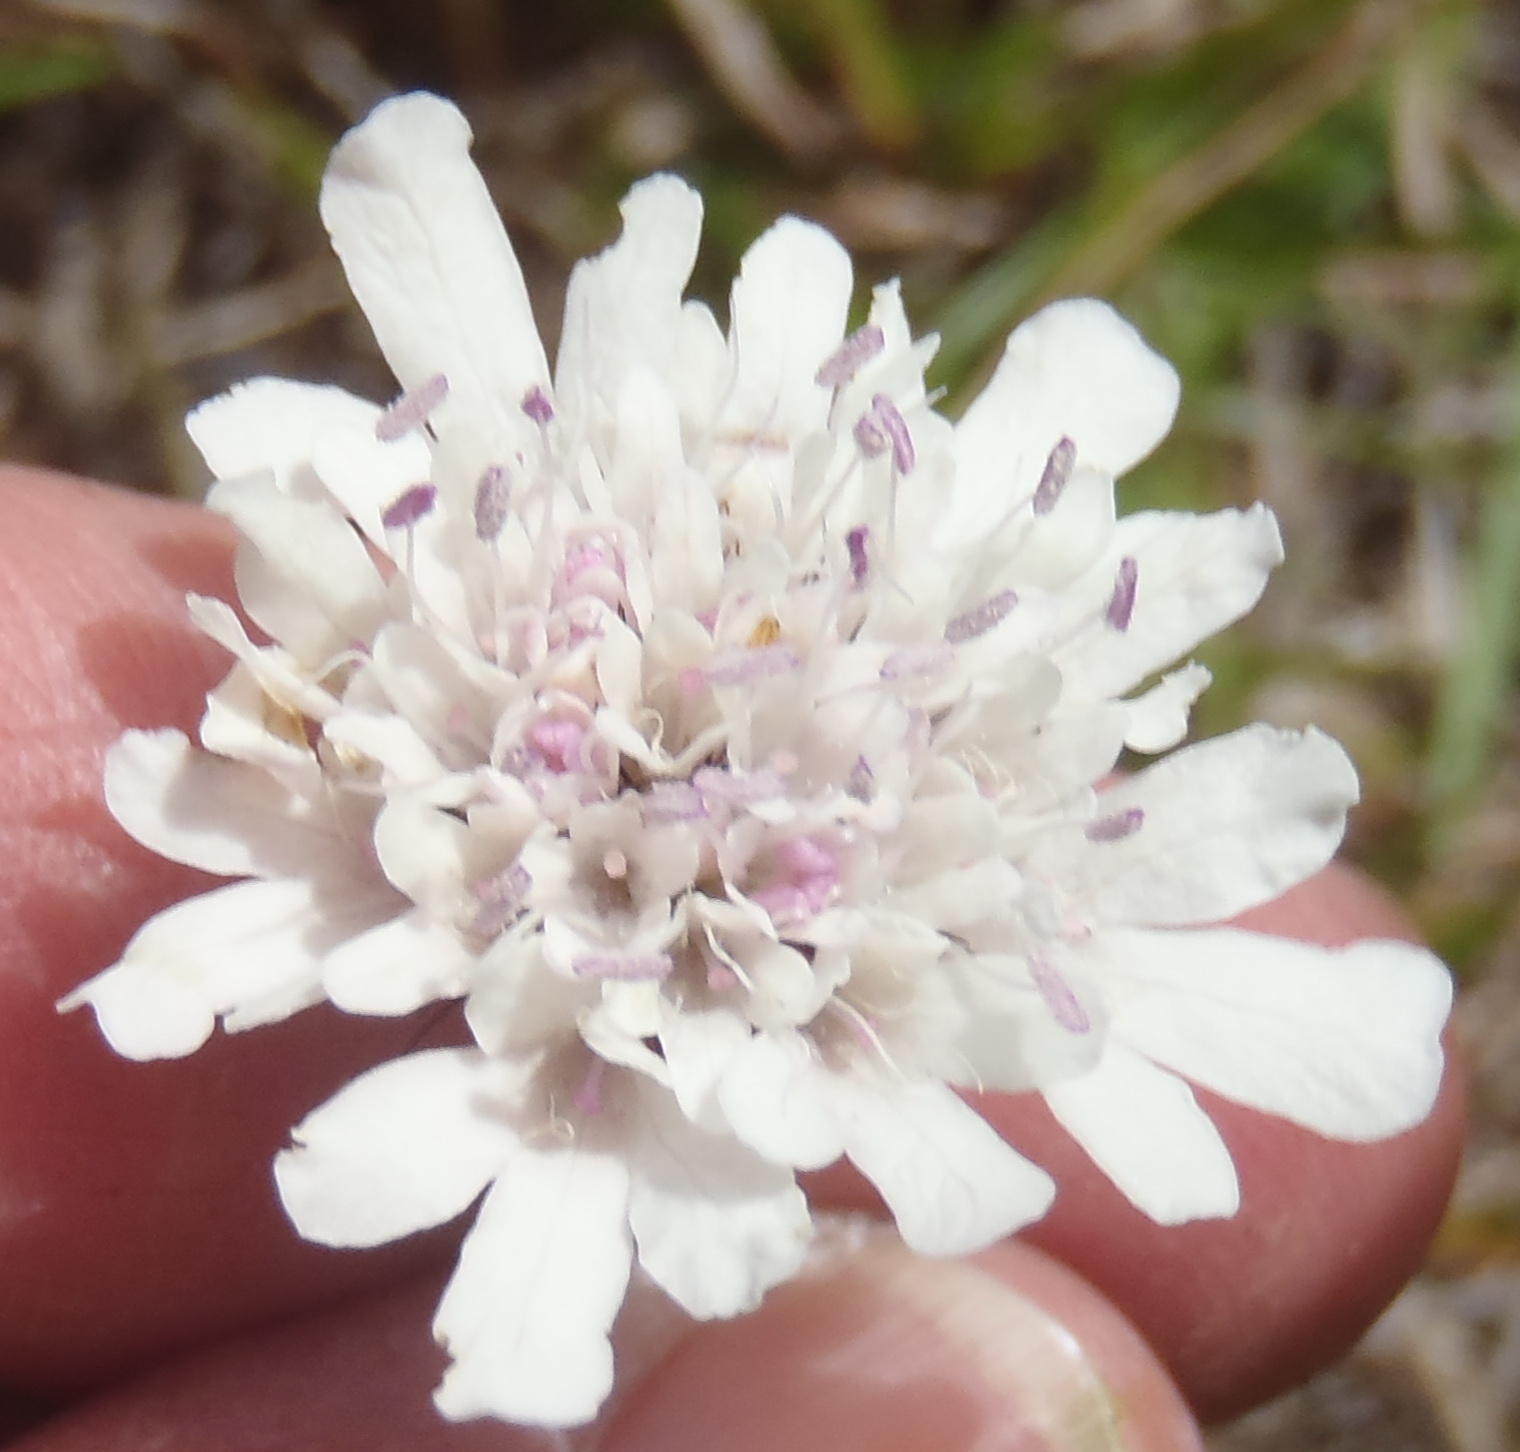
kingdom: Plantae
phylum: Tracheophyta
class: Magnoliopsida
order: Dipsacales
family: Caprifoliaceae
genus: Scabiosa
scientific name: Scabiosa columbaria
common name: Small scabious
